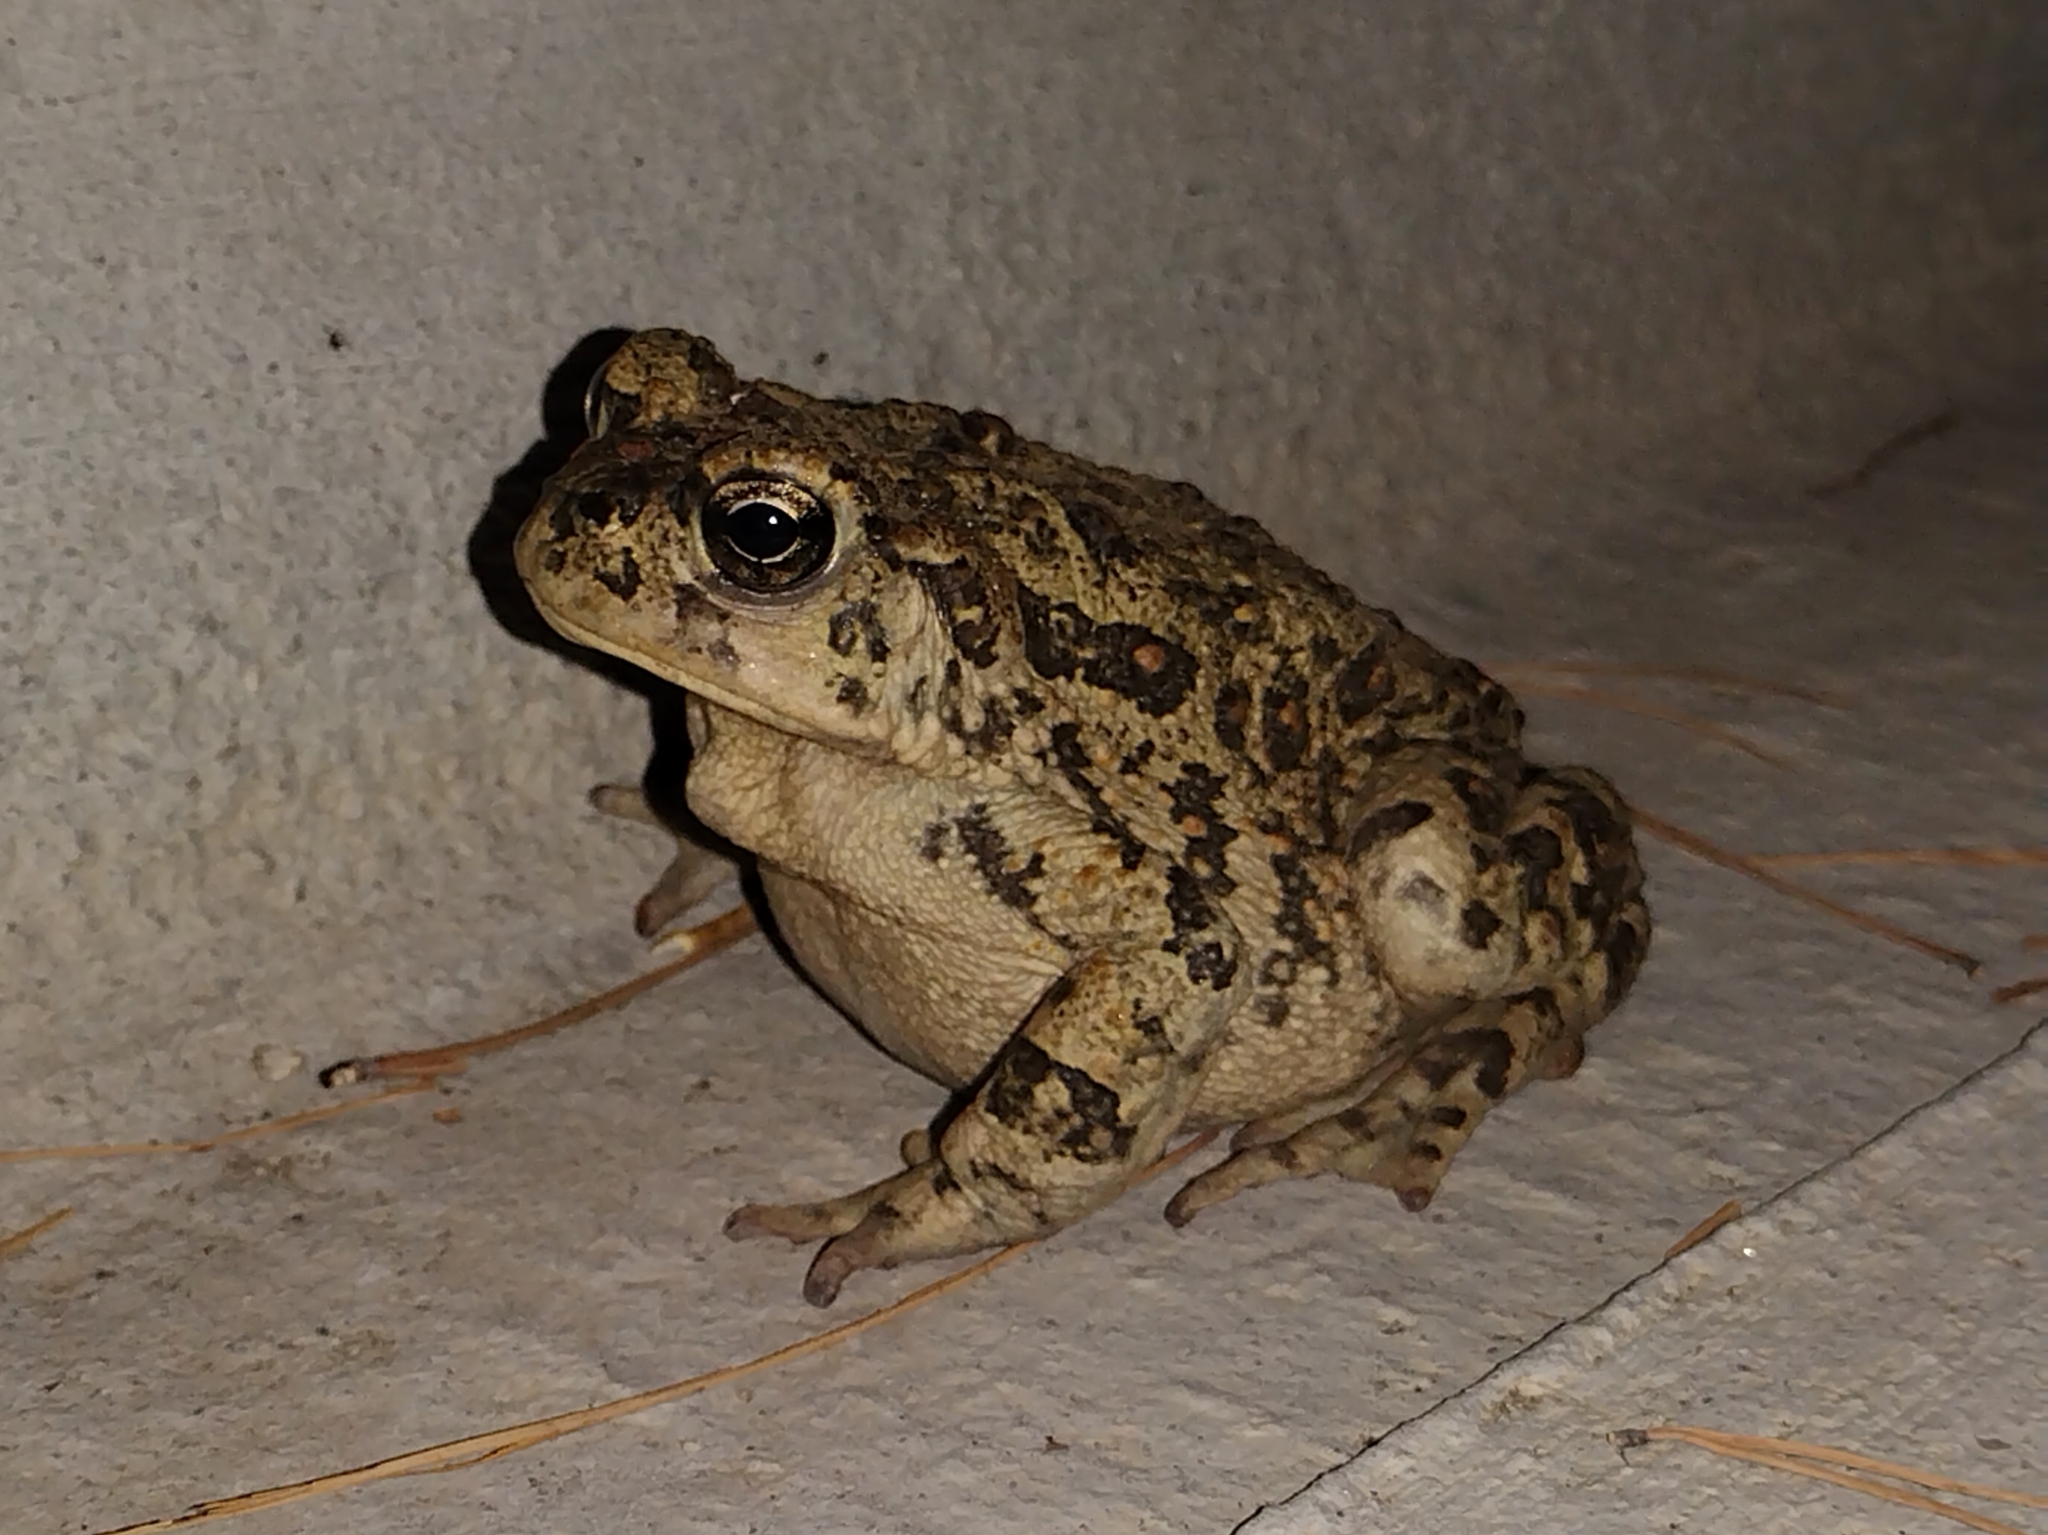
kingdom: Animalia
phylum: Chordata
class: Amphibia
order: Anura
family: Bufonidae
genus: Anaxyrus
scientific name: Anaxyrus boreas
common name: Western toad
